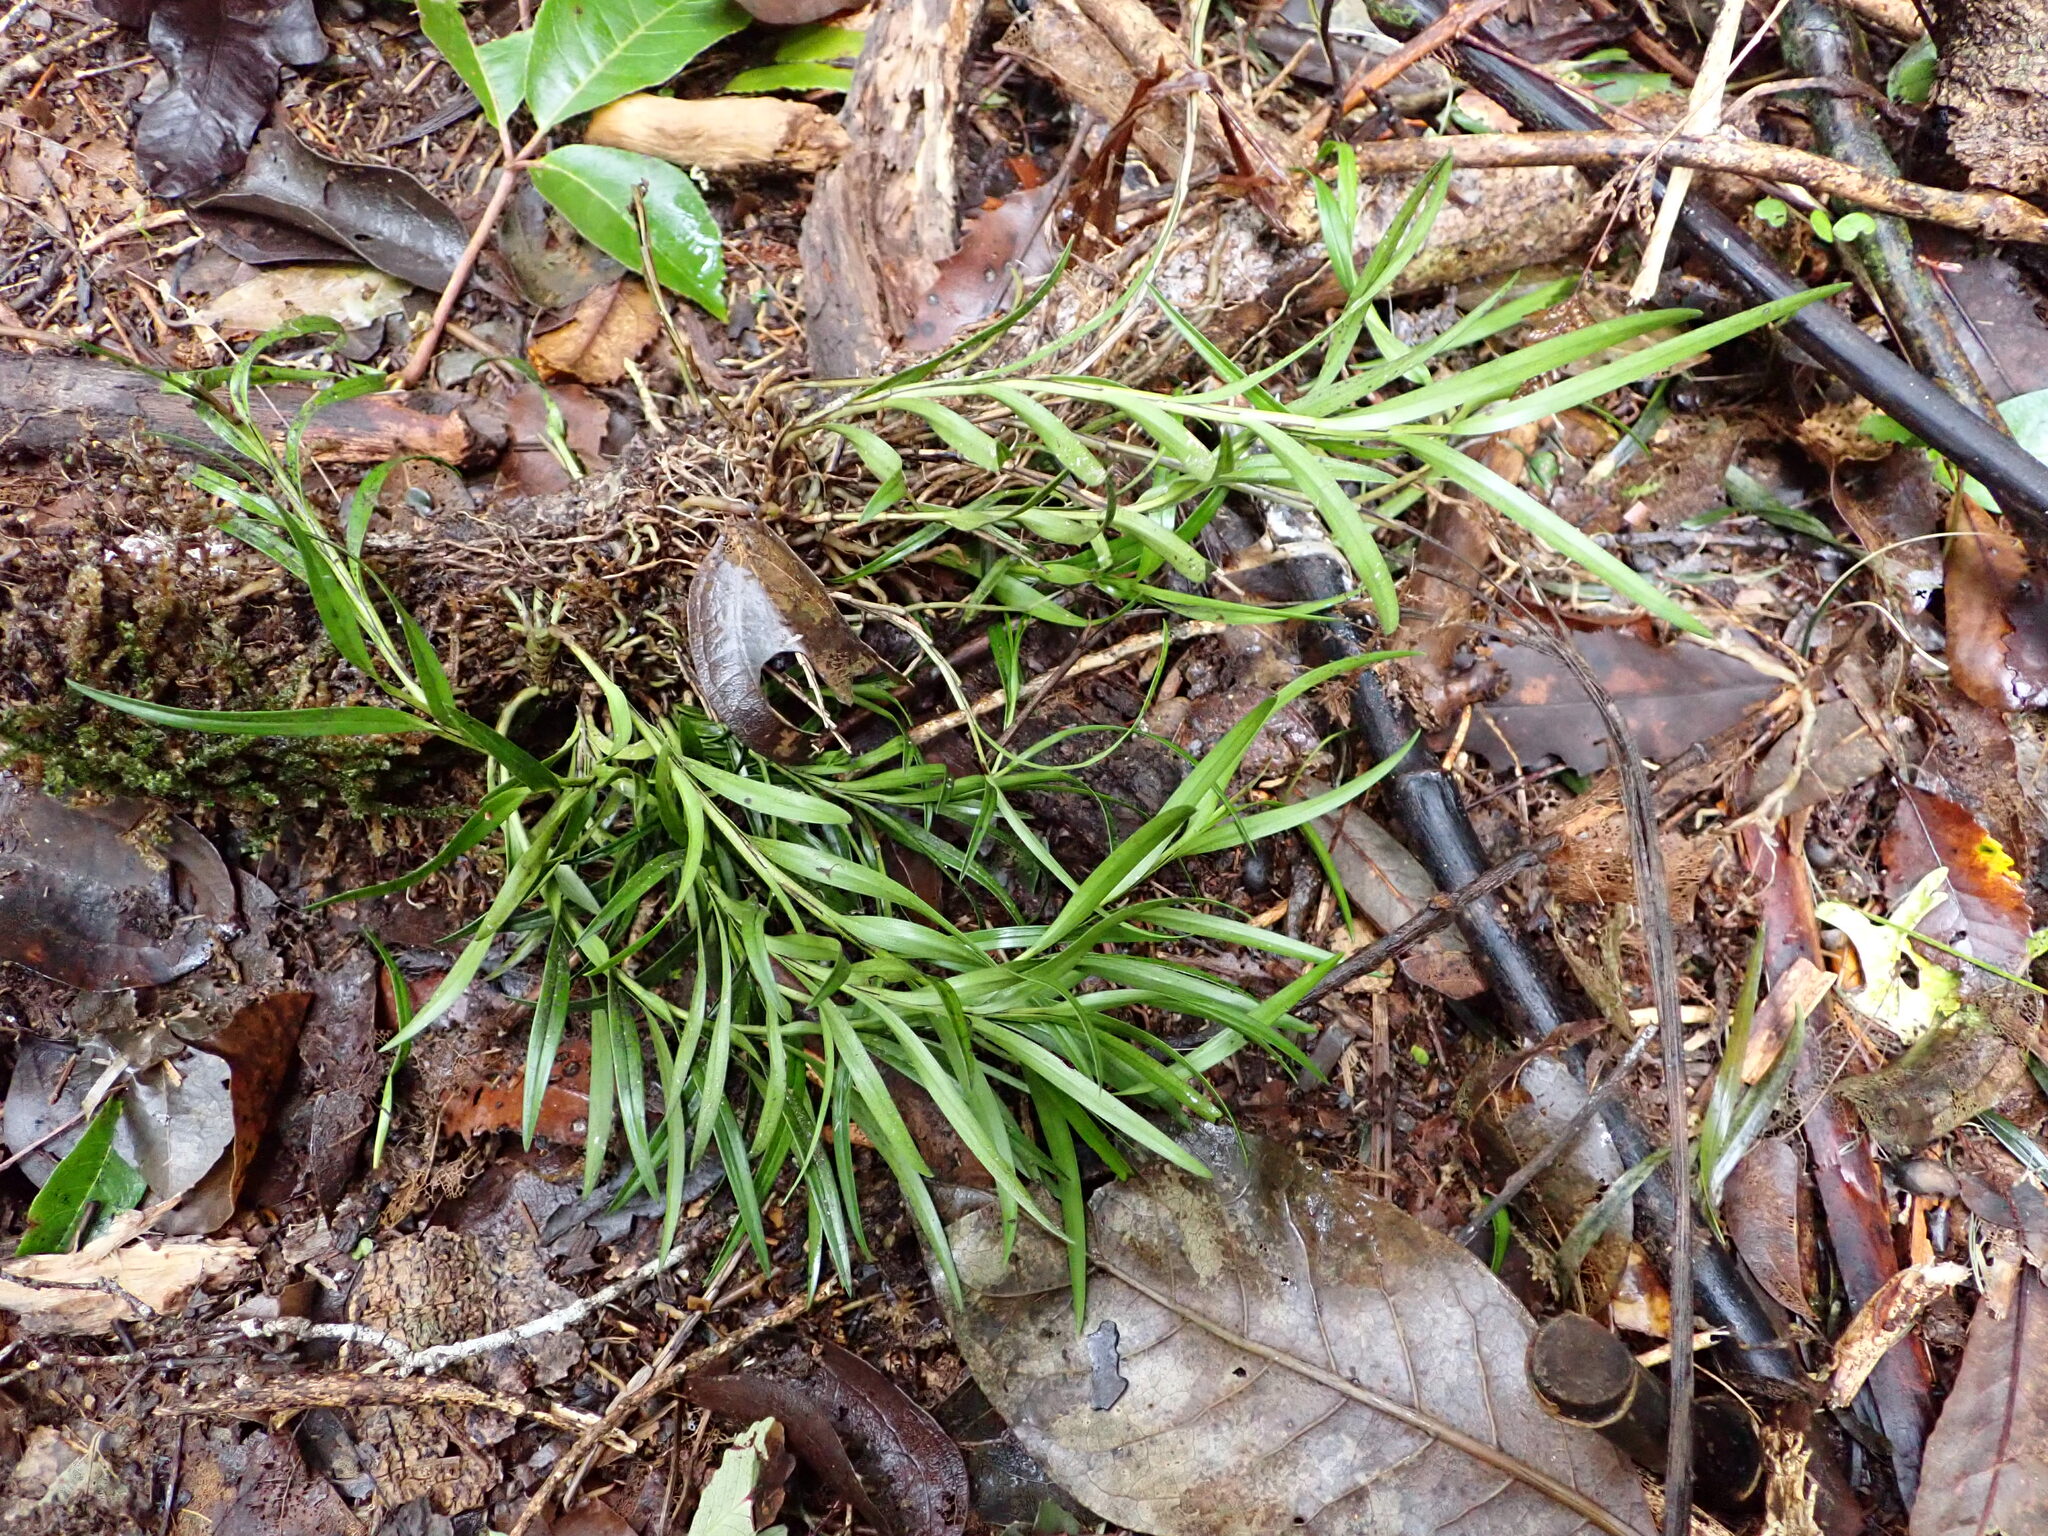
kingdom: Plantae
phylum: Tracheophyta
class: Liliopsida
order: Asparagales
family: Orchidaceae
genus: Earina
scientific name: Earina autumnalis
